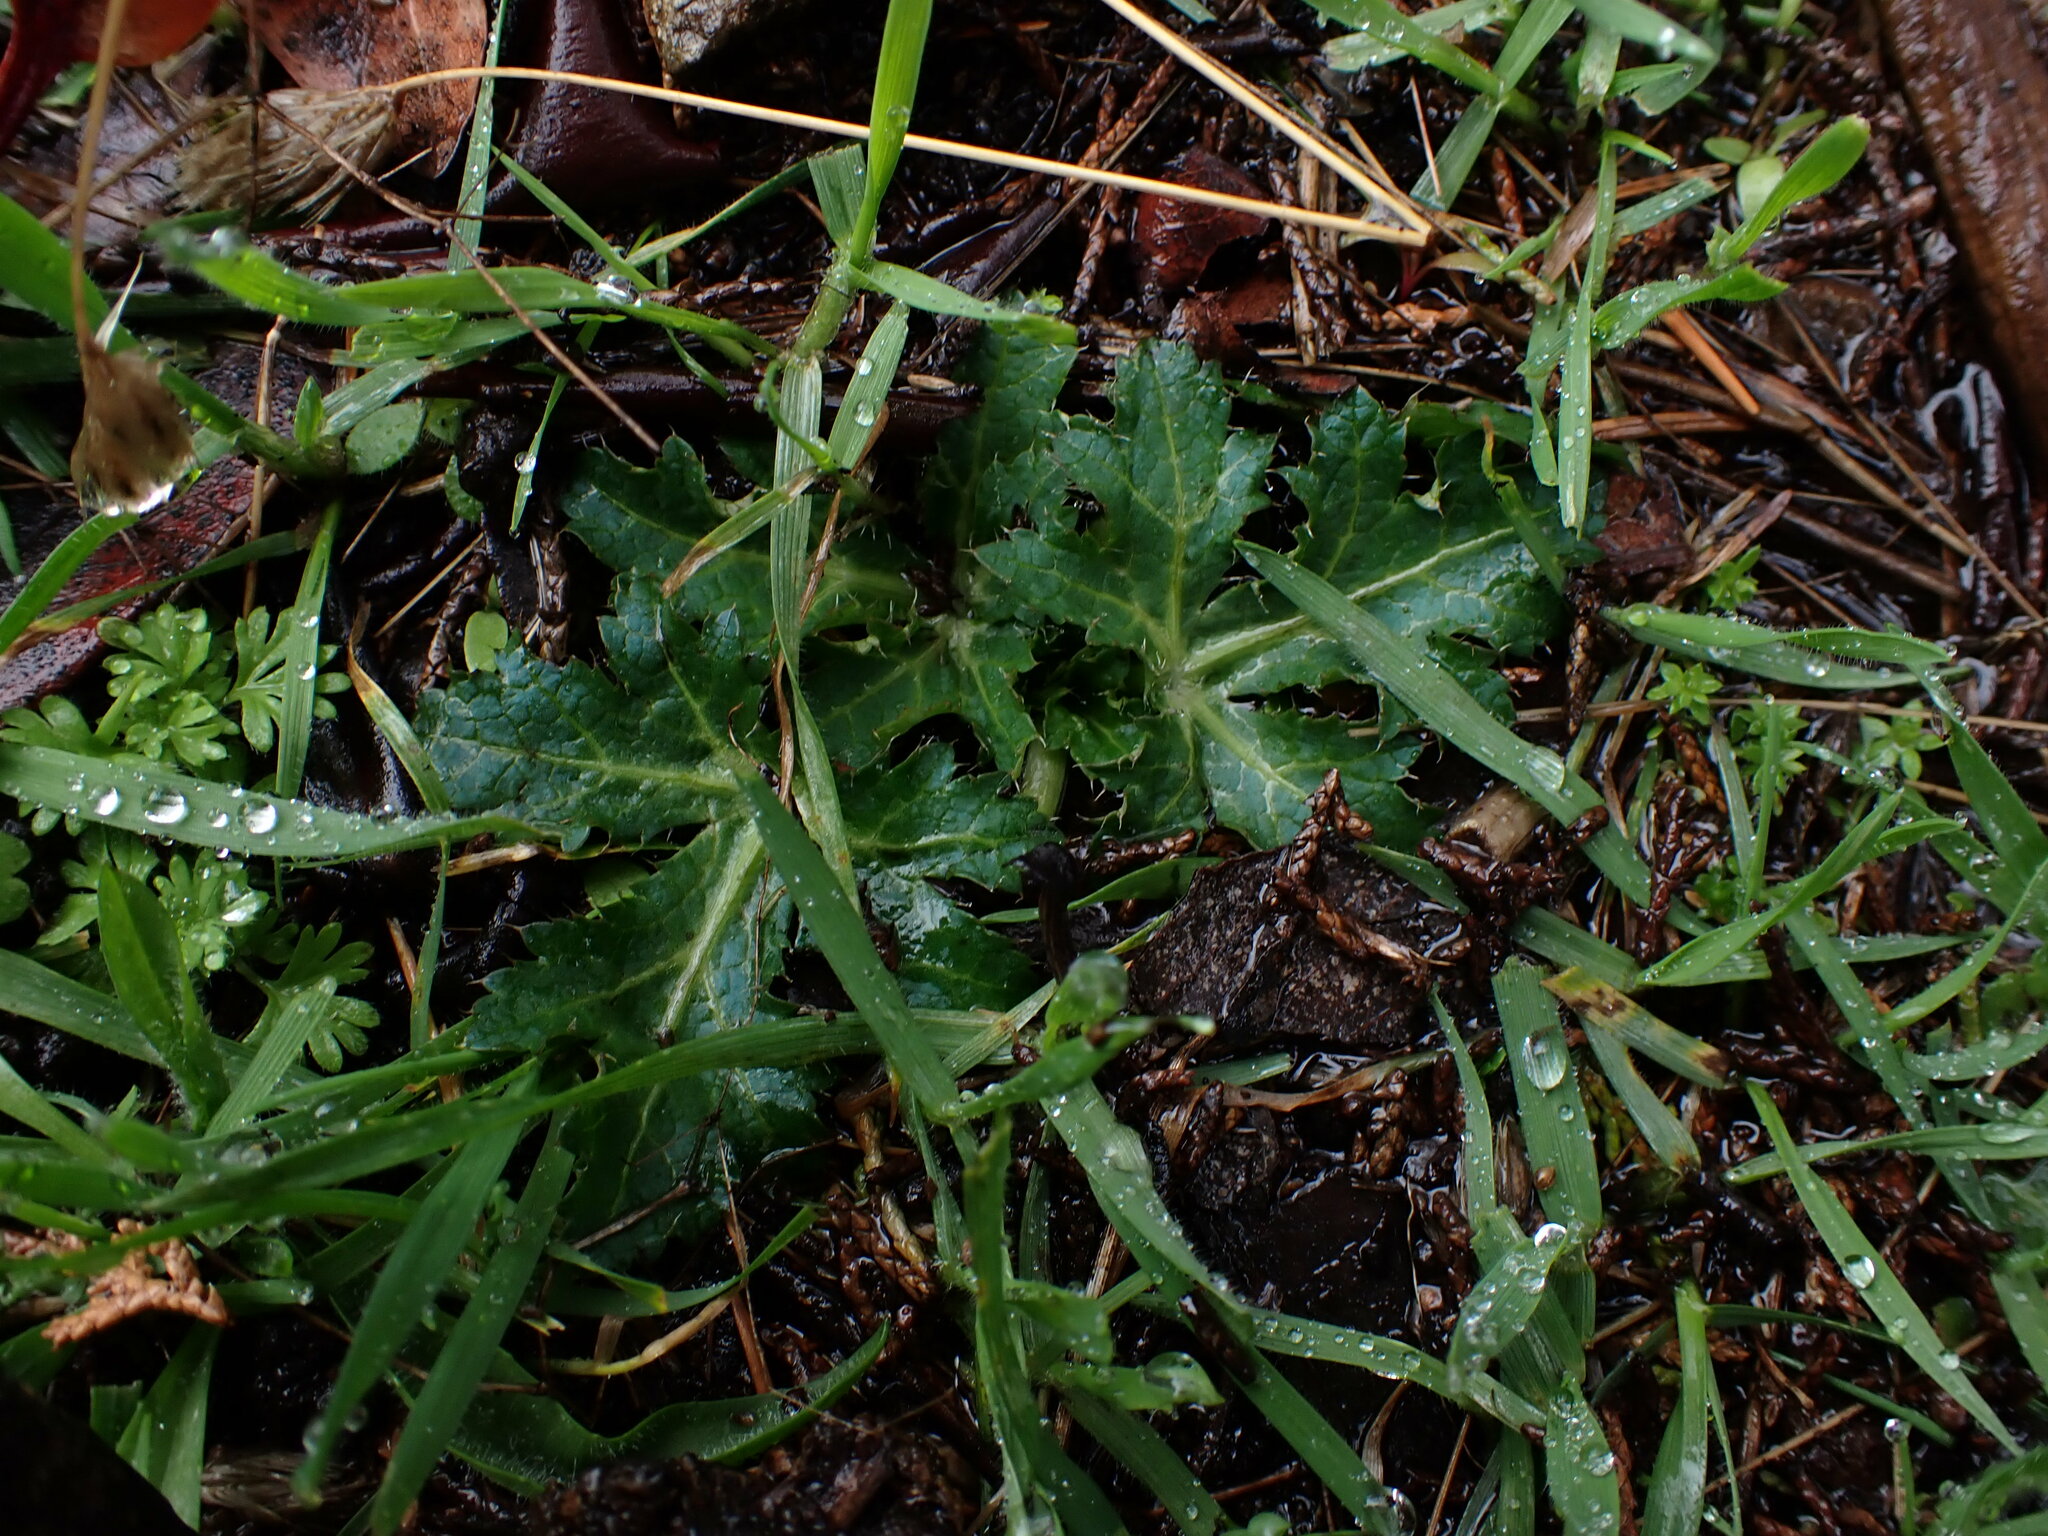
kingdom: Plantae
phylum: Tracheophyta
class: Magnoliopsida
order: Apiales
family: Apiaceae
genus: Sanicula
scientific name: Sanicula crassicaulis
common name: Western snakeroot
